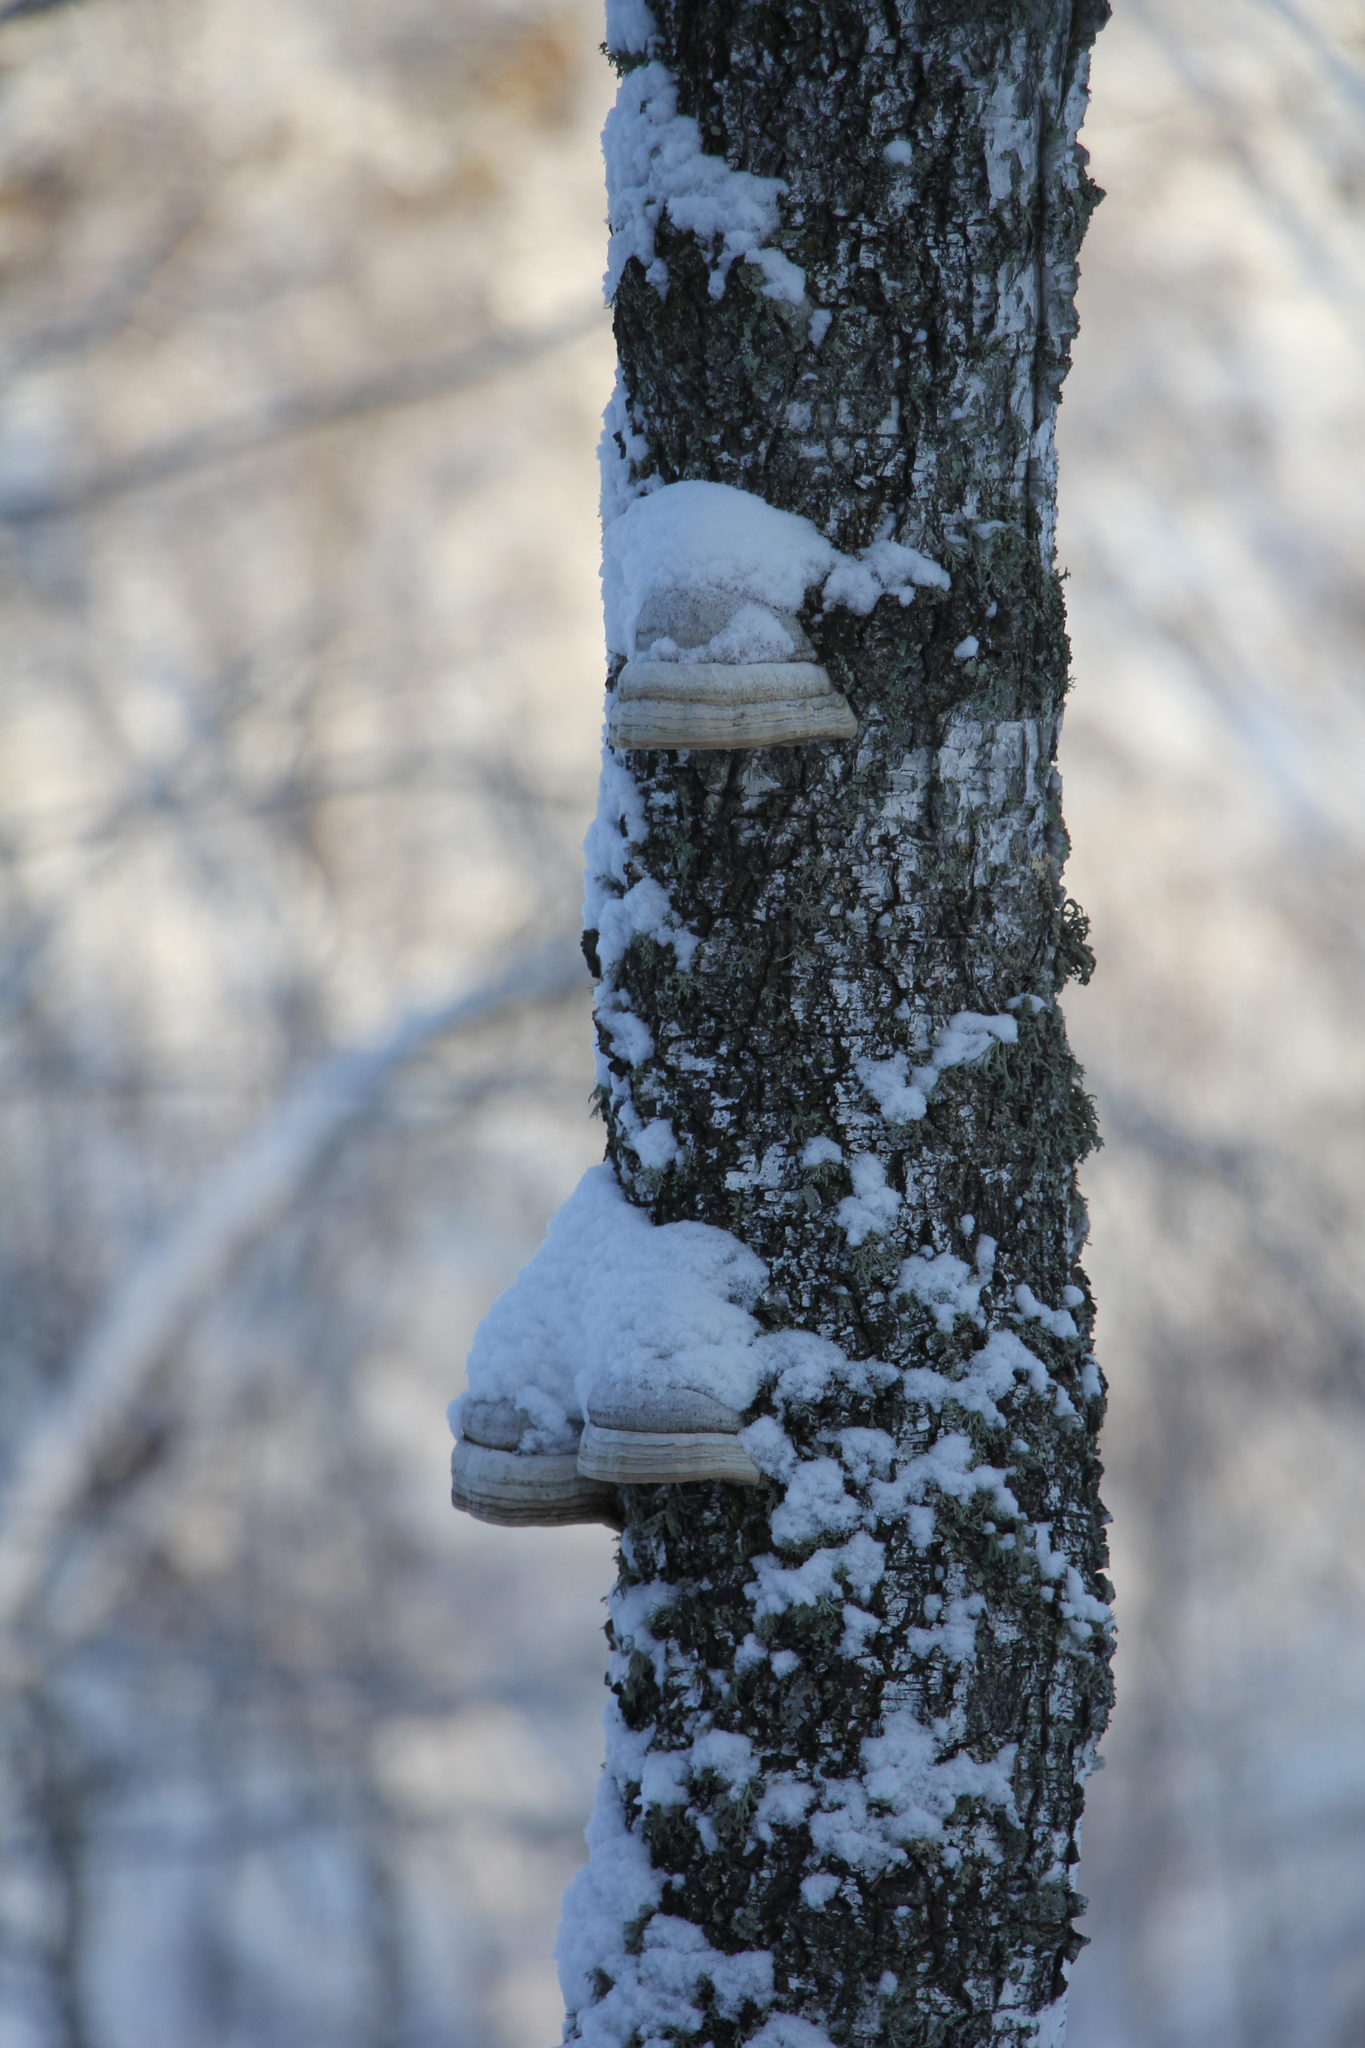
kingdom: Fungi
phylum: Basidiomycota
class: Agaricomycetes
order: Polyporales
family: Polyporaceae
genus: Fomes
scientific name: Fomes fomentarius
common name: Hoof fungus
